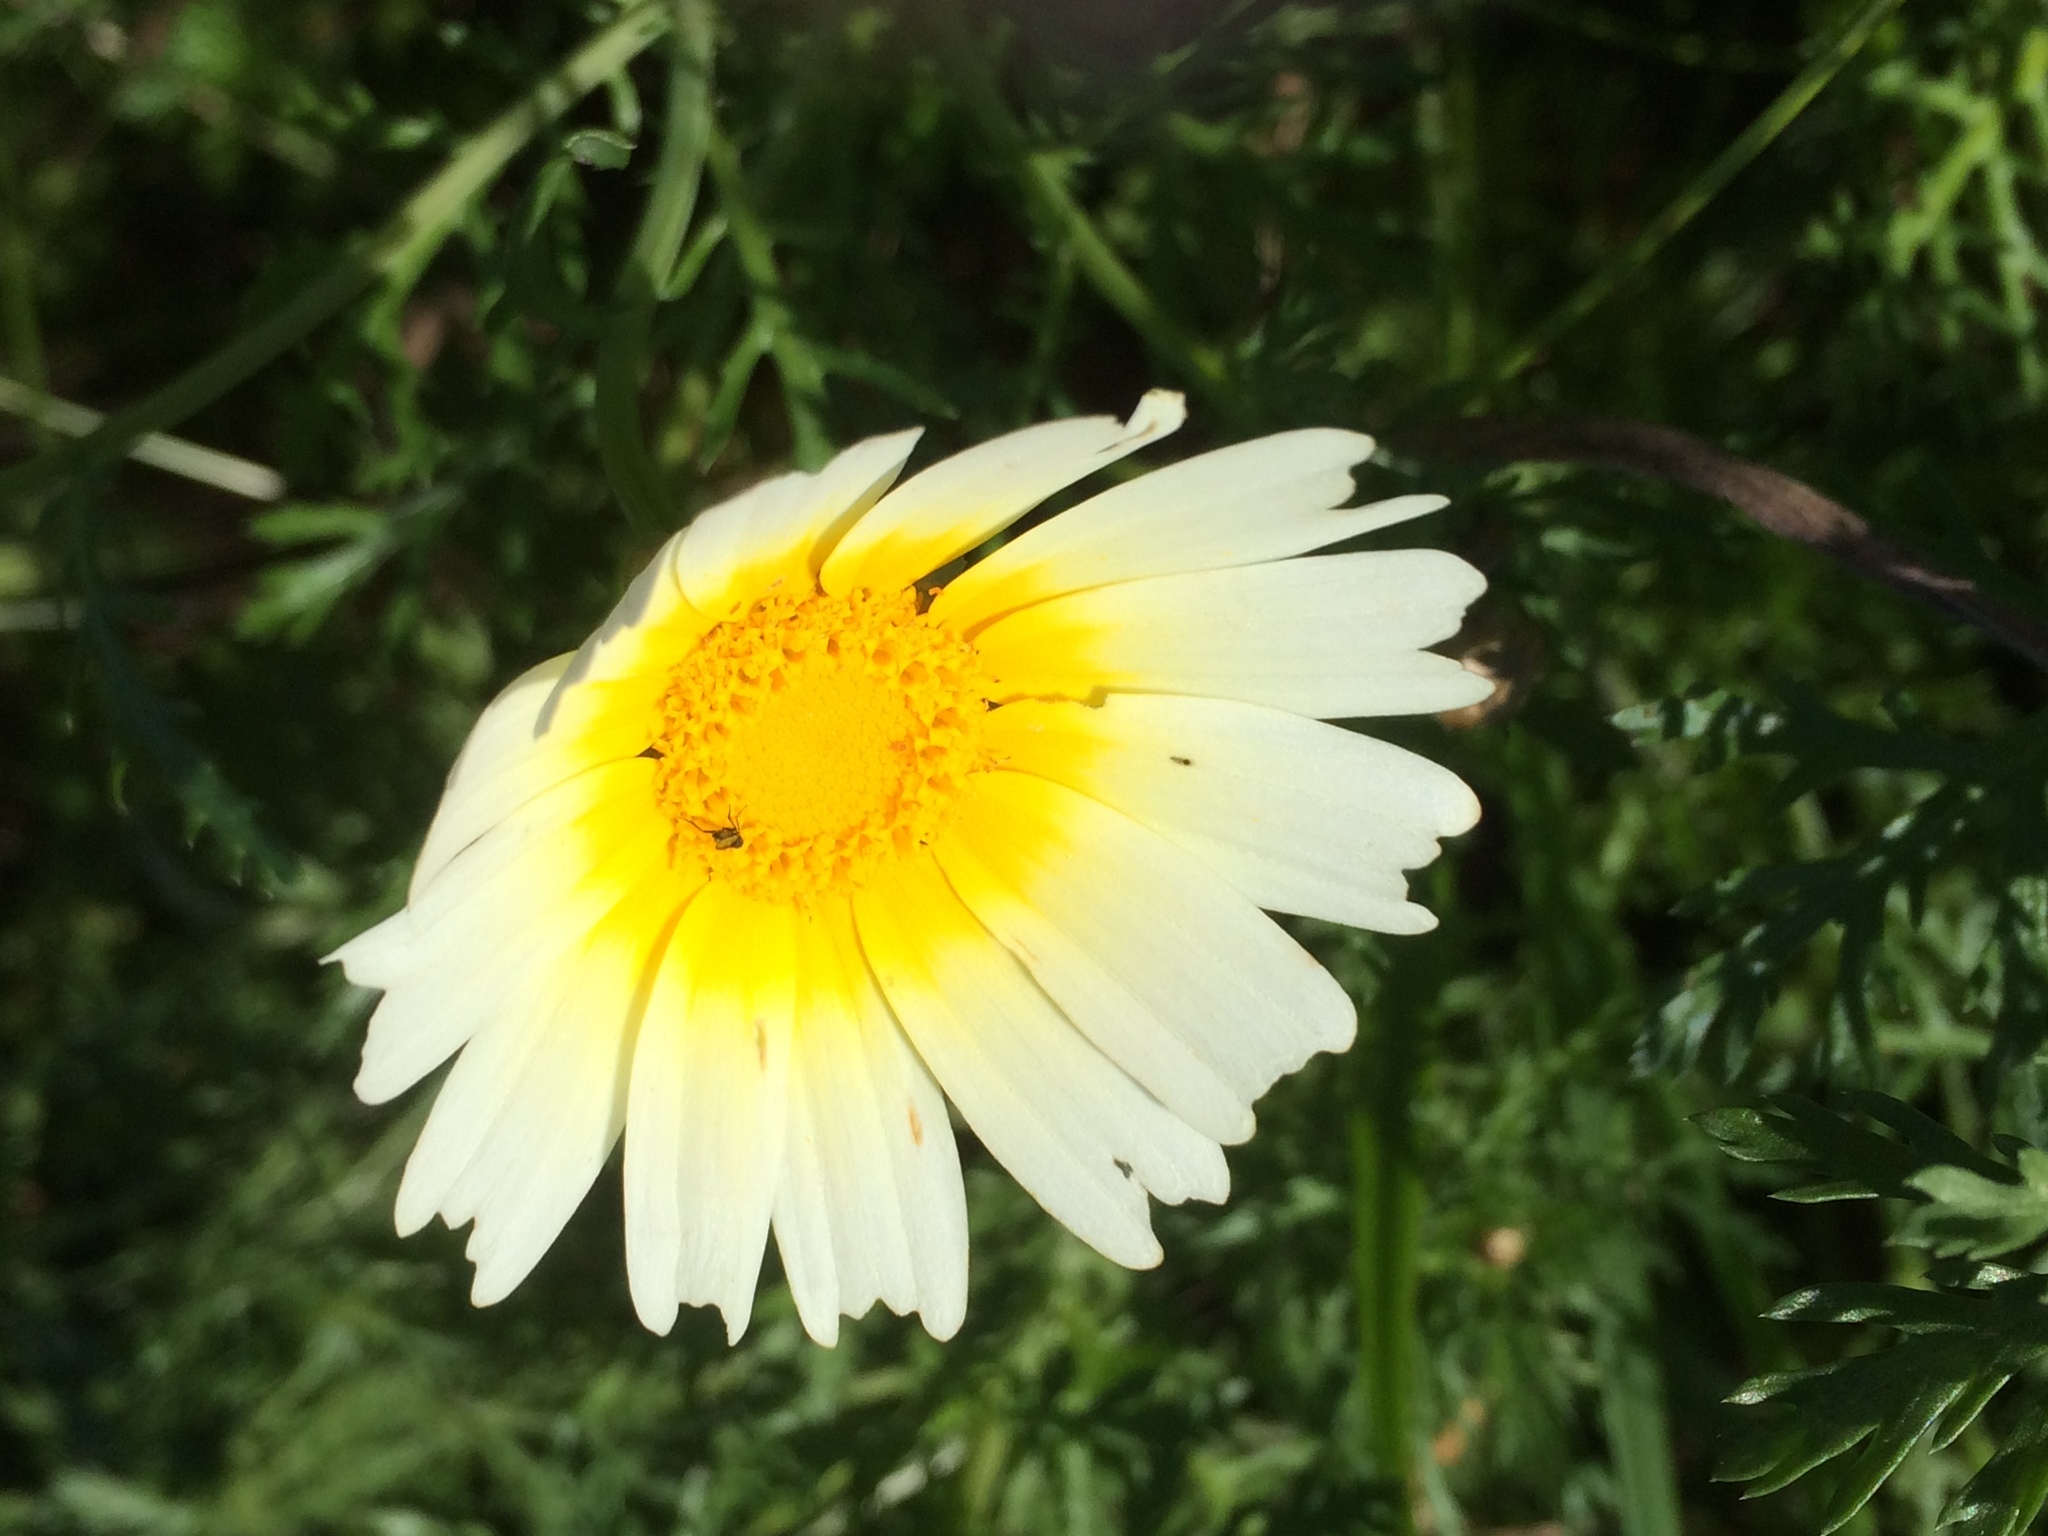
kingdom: Plantae
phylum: Tracheophyta
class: Magnoliopsida
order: Asterales
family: Asteraceae
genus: Glebionis
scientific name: Glebionis coronaria
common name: Crowndaisy
